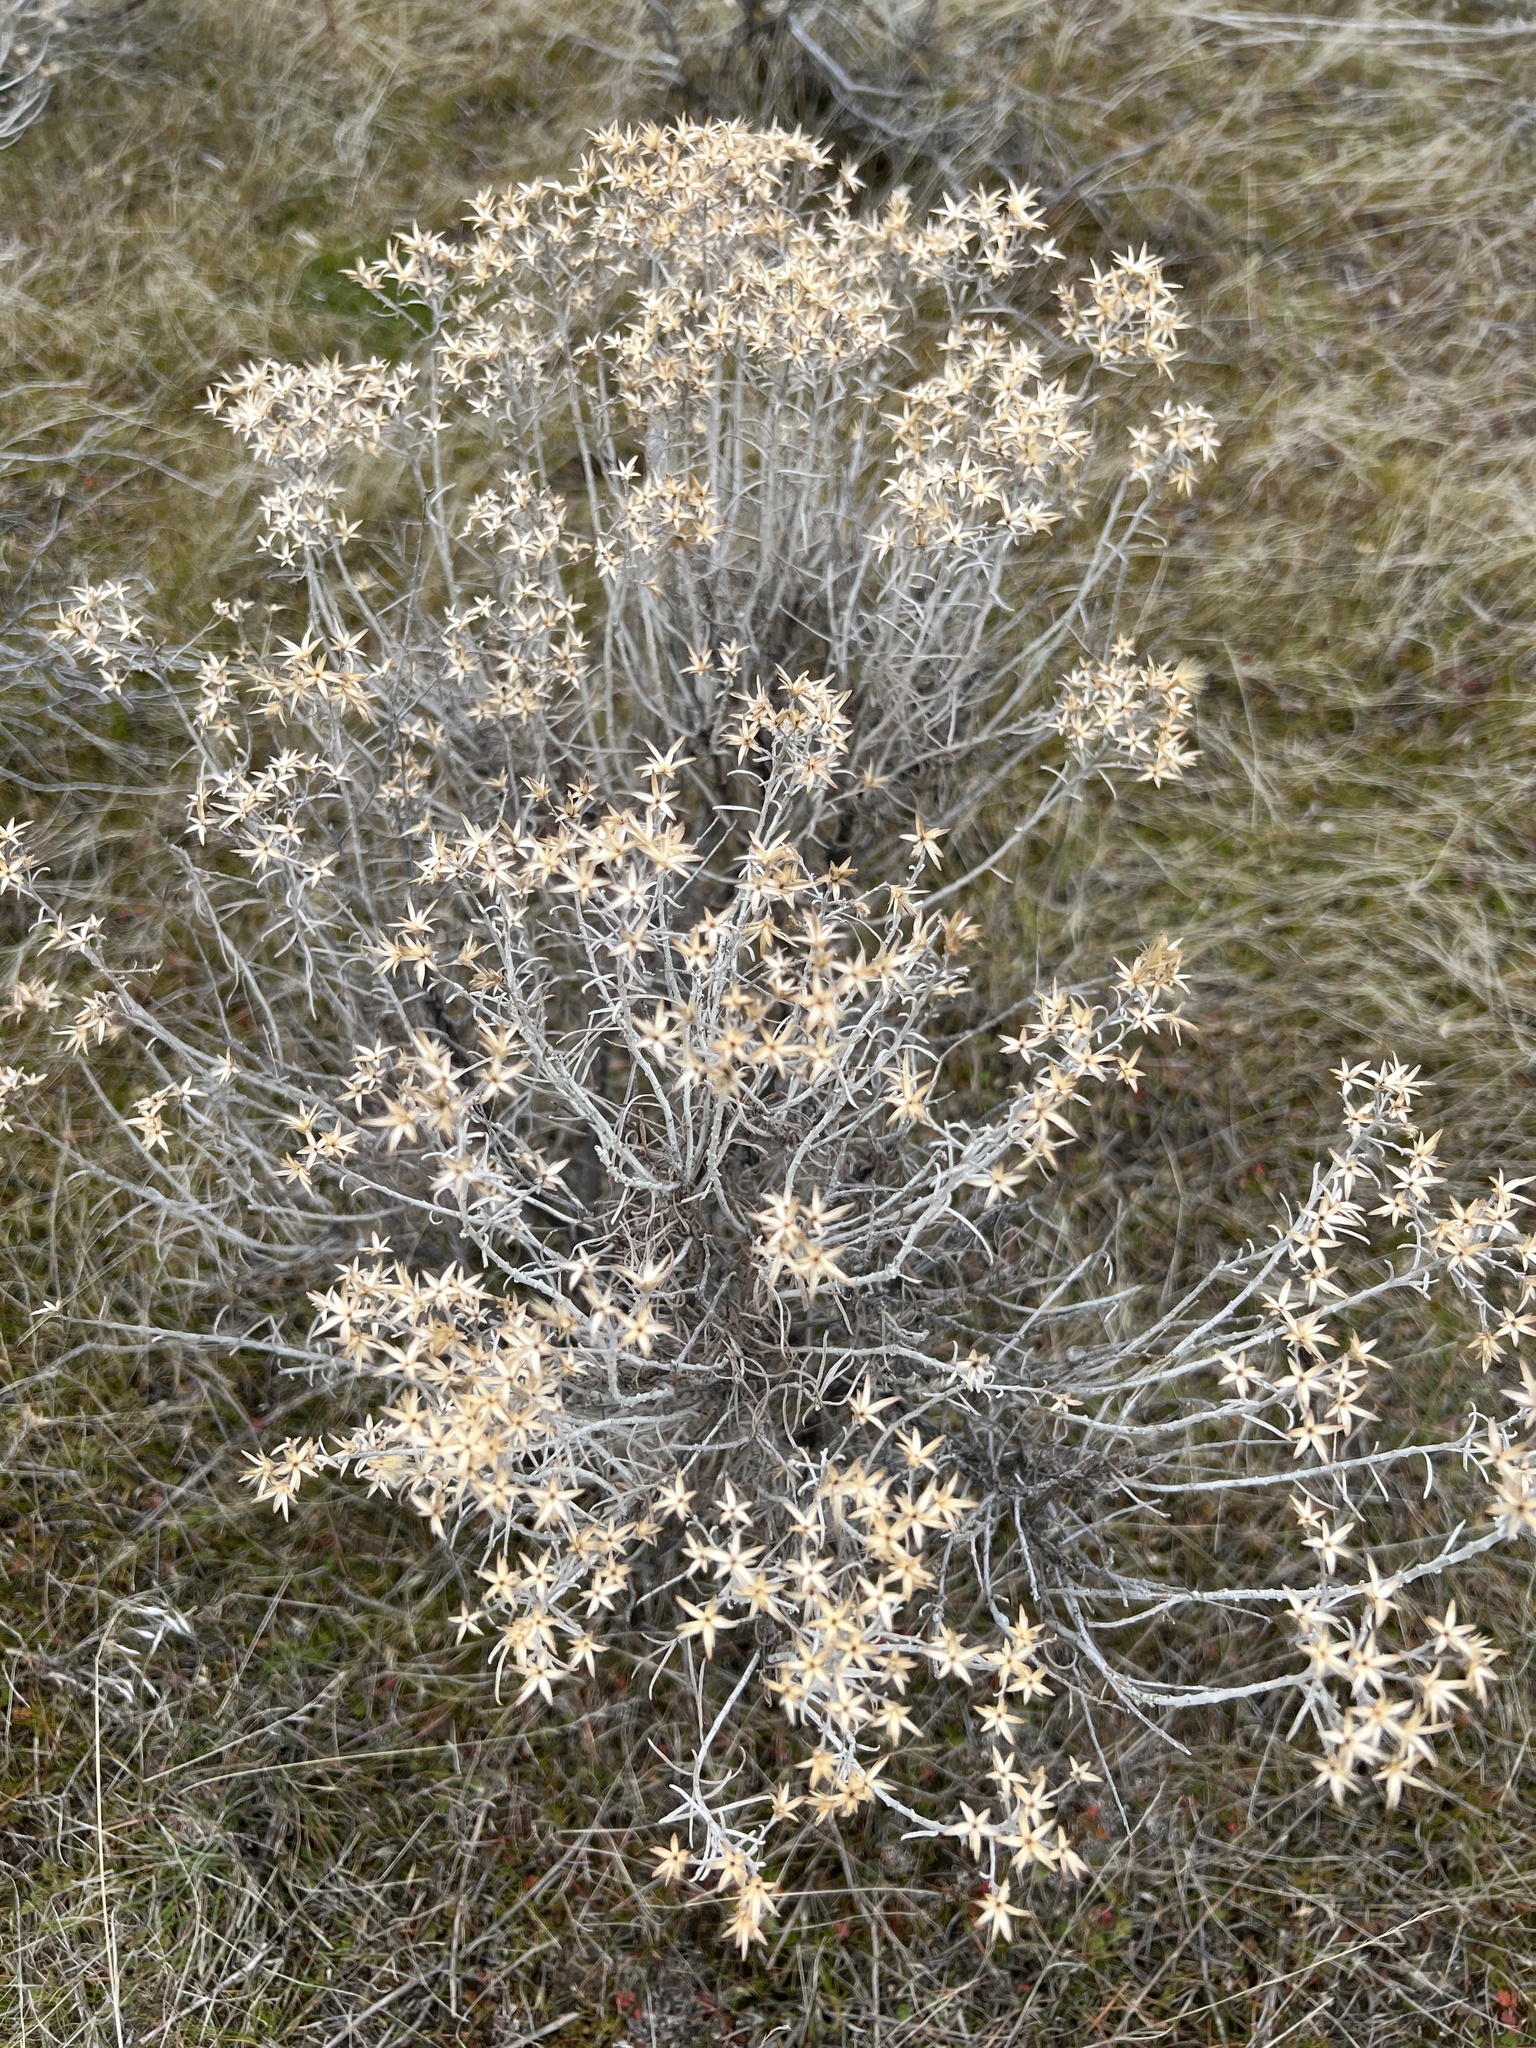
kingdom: Plantae
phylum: Tracheophyta
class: Magnoliopsida
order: Asterales
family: Asteraceae
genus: Ericameria
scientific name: Ericameria nauseosa
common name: Rubber rabbitbrush
